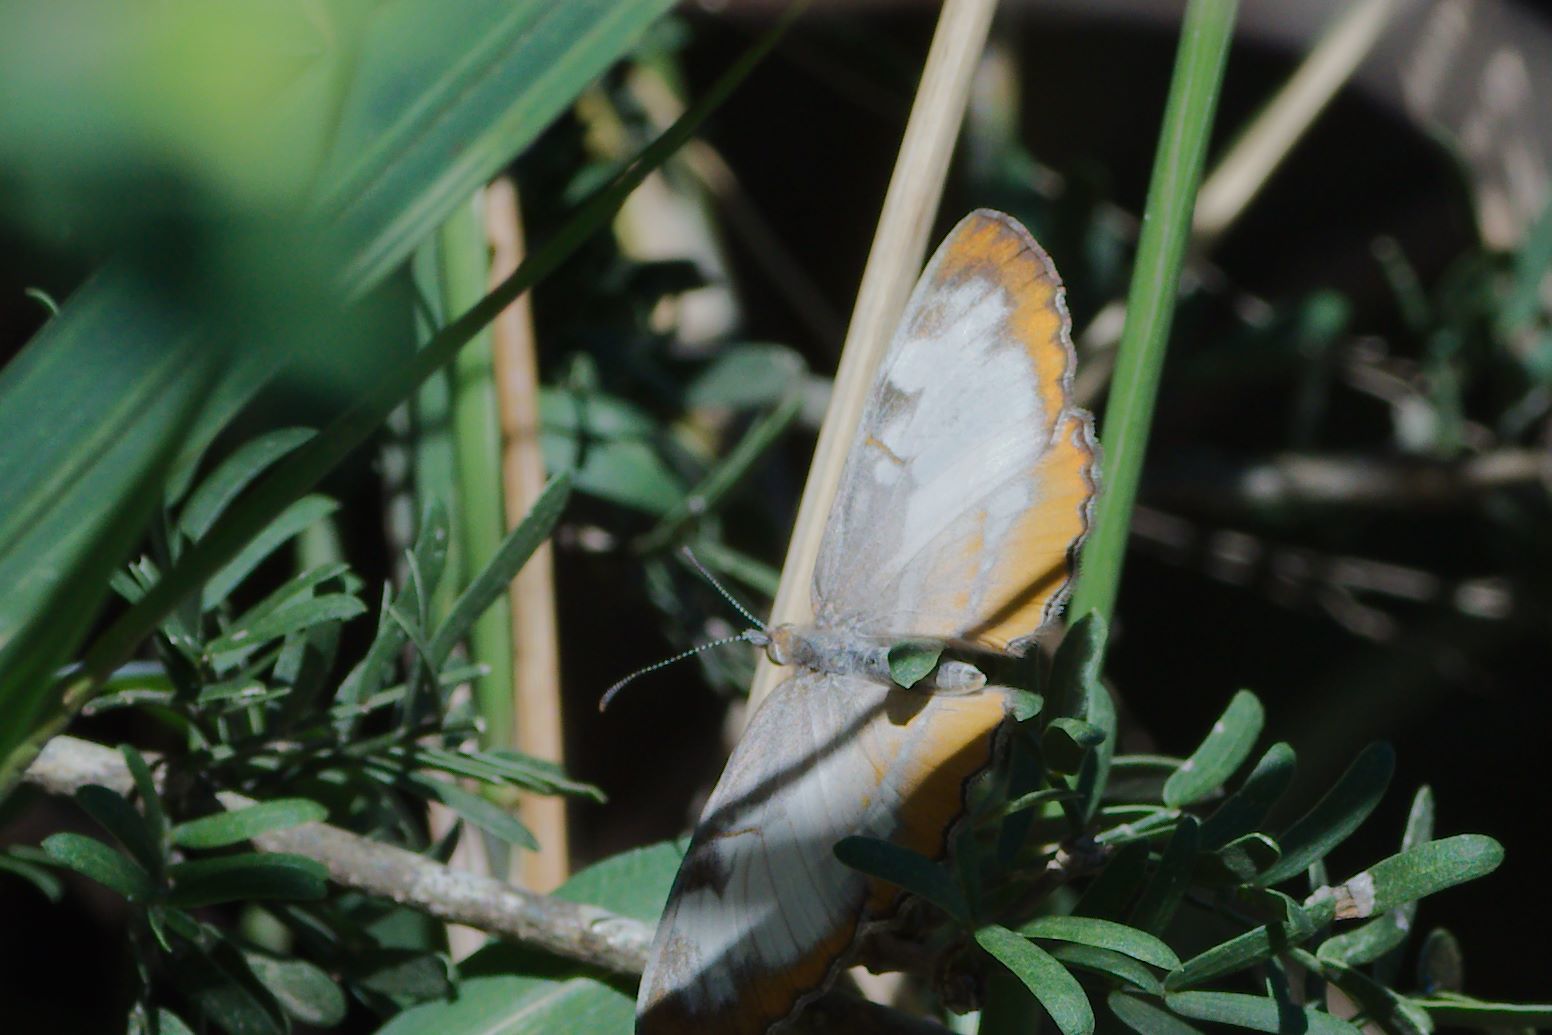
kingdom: Animalia
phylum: Arthropoda
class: Insecta
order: Lepidoptera
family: Nymphalidae
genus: Mestra
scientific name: Mestra amymone
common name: Common mestra
